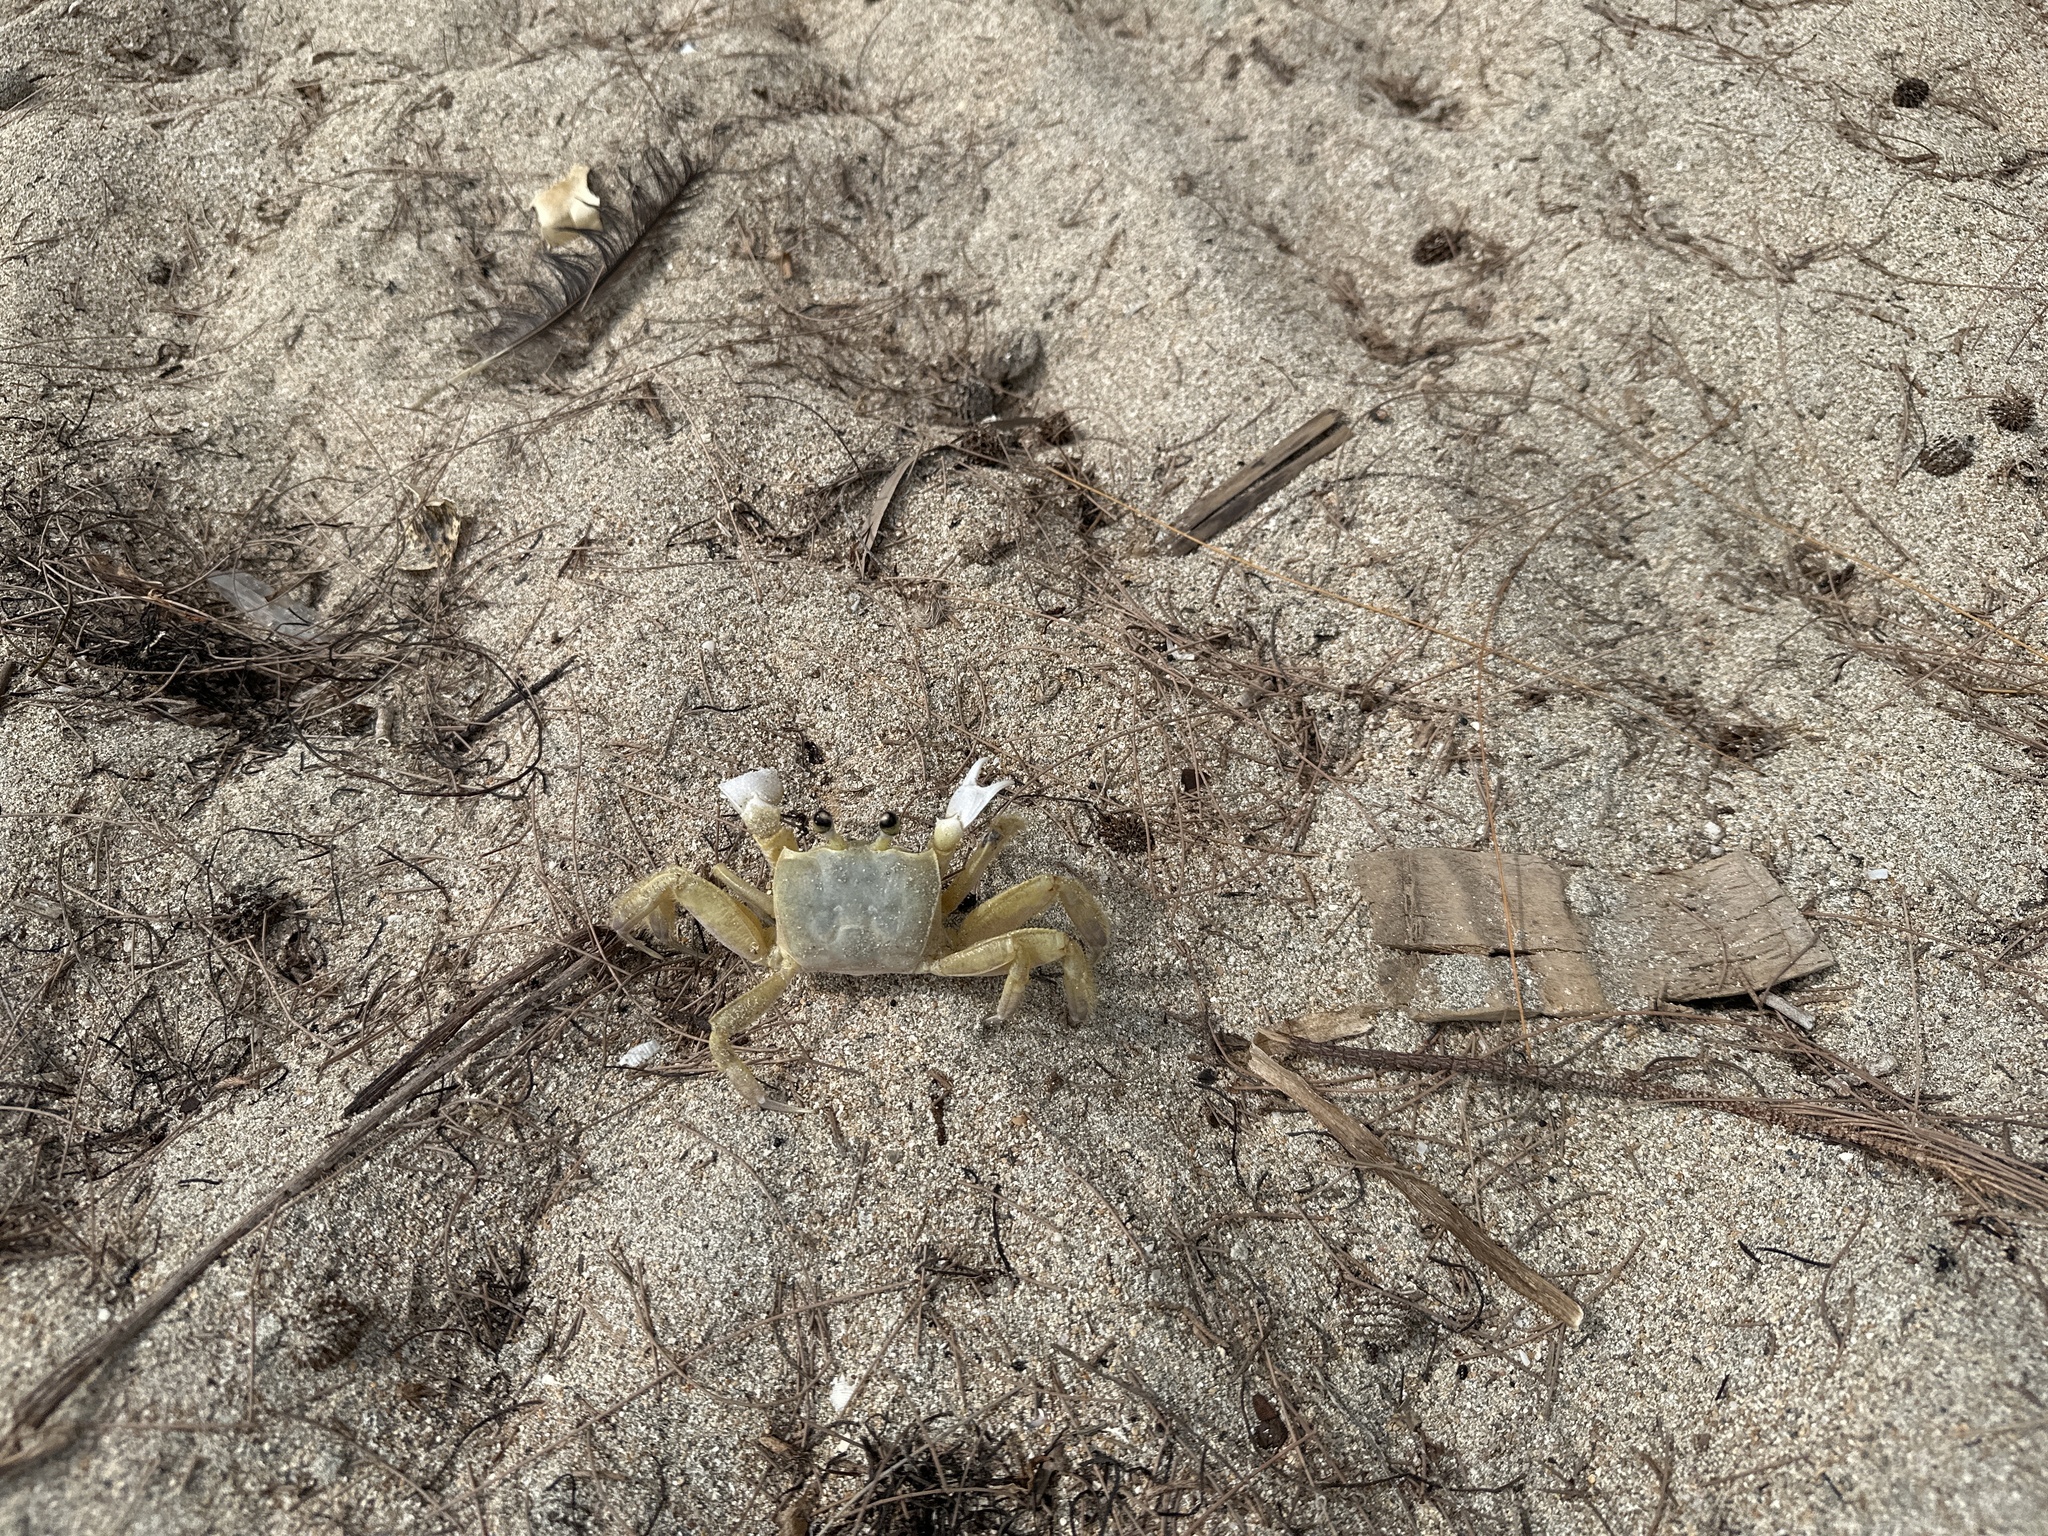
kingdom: Animalia
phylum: Arthropoda
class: Malacostraca
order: Decapoda
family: Ocypodidae
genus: Ocypode
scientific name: Ocypode quadrata
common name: Ghost crab
